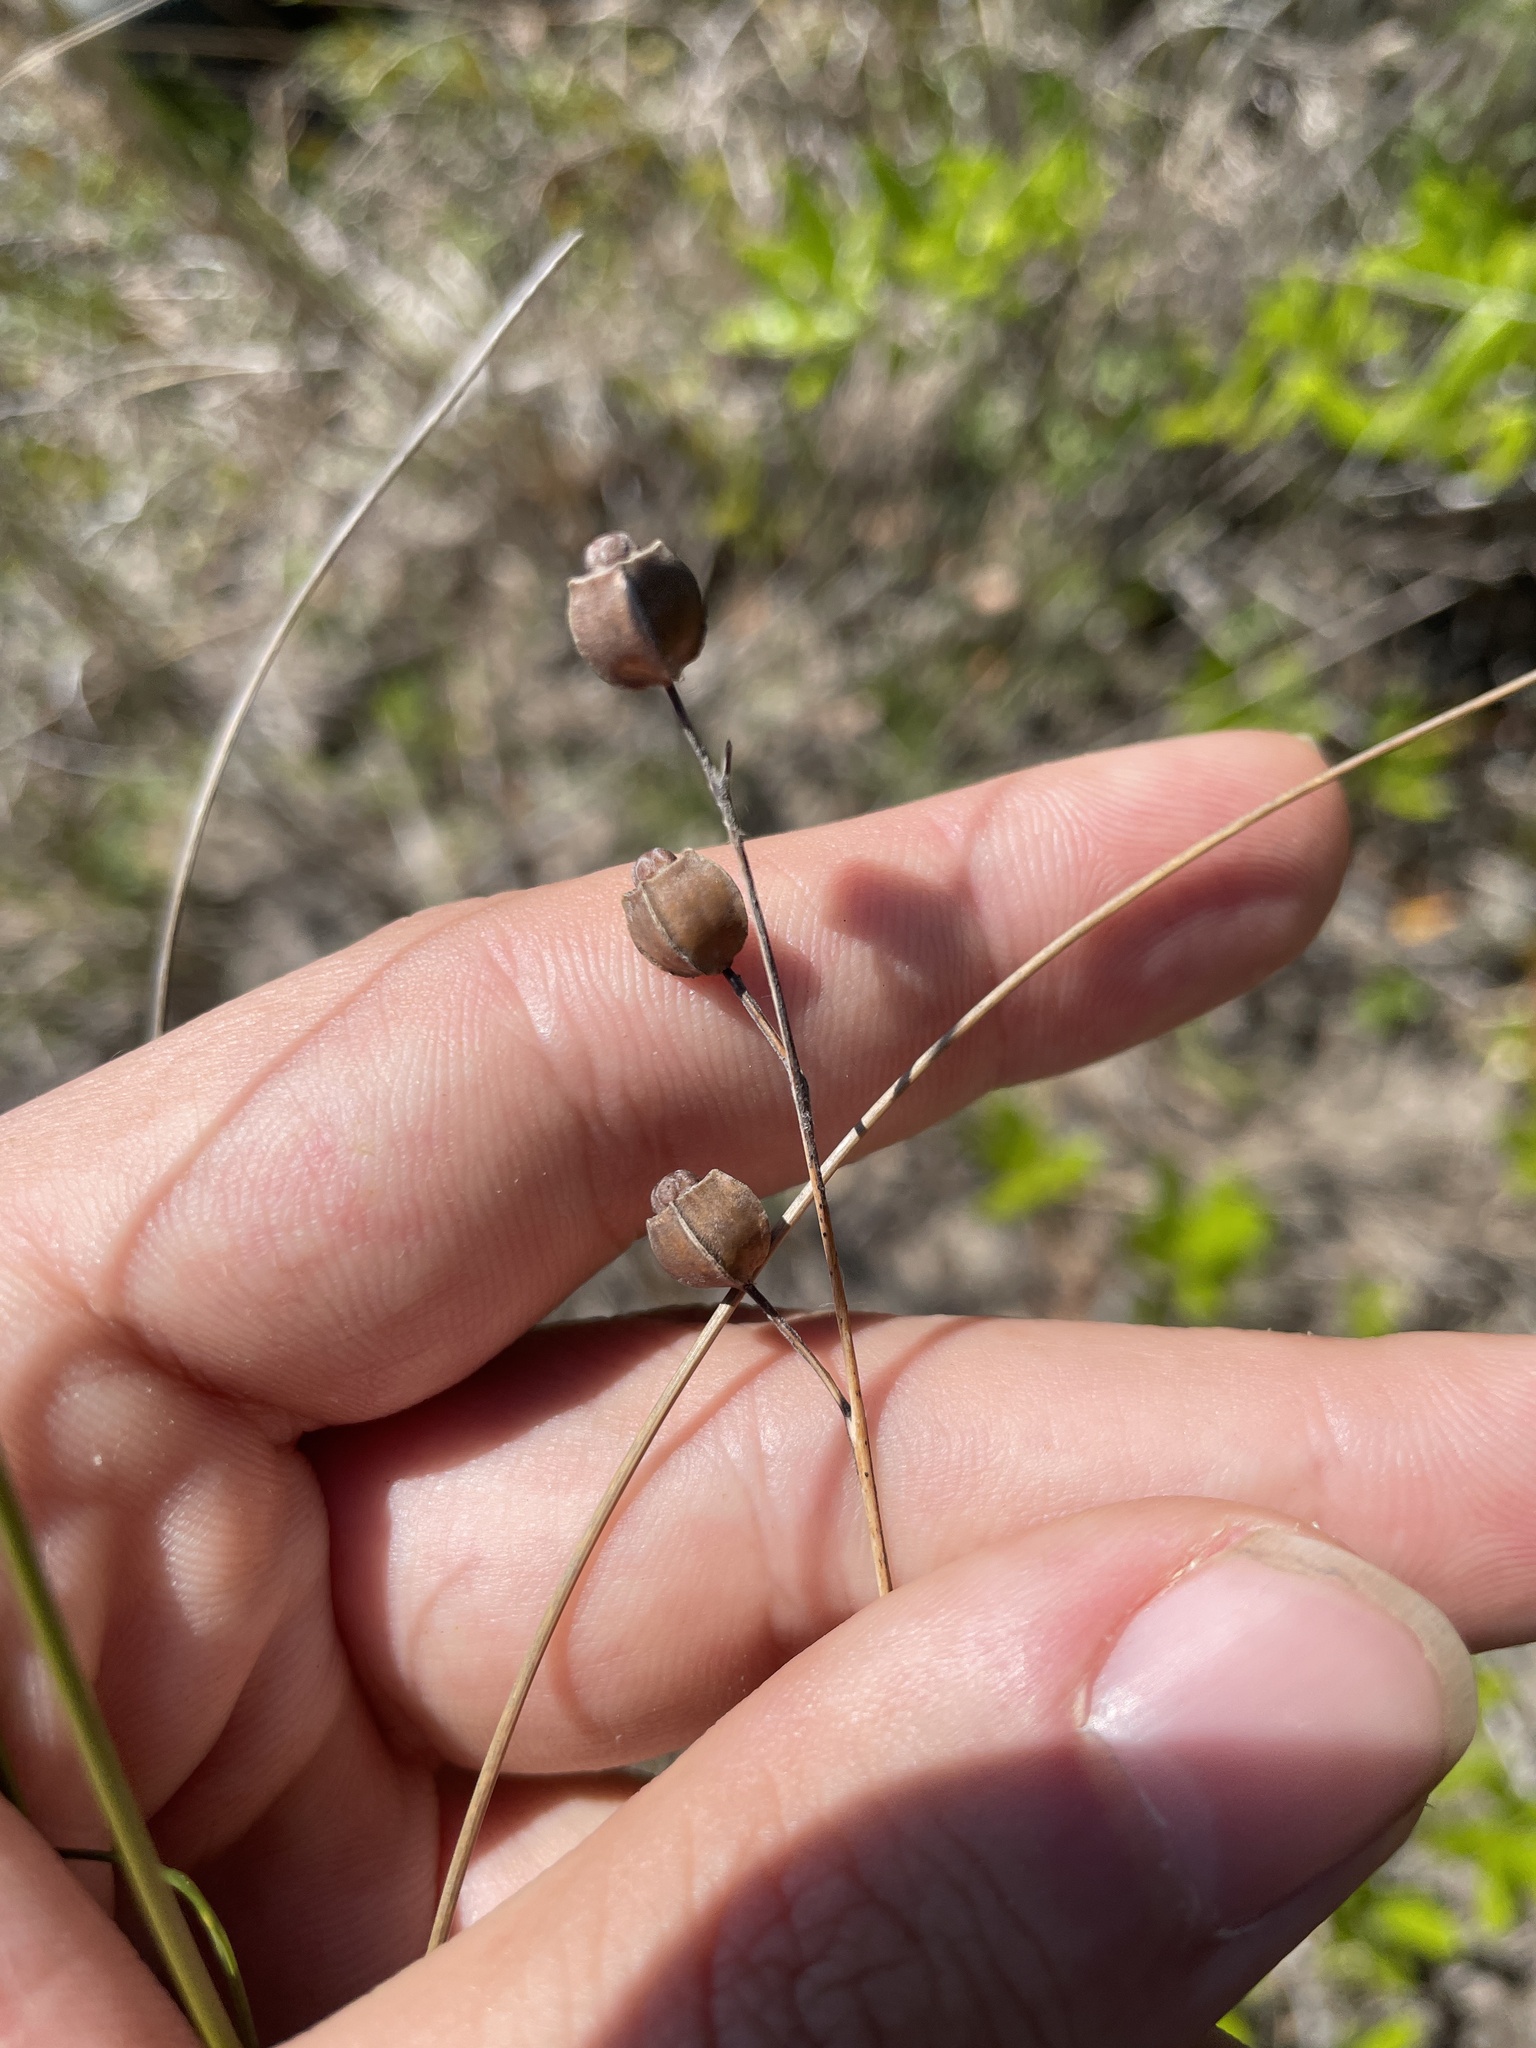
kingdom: Plantae
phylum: Tracheophyta
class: Magnoliopsida
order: Myrtales
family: Onagraceae
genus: Ludwigia
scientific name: Ludwigia alternifolia
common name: Rattlebox
